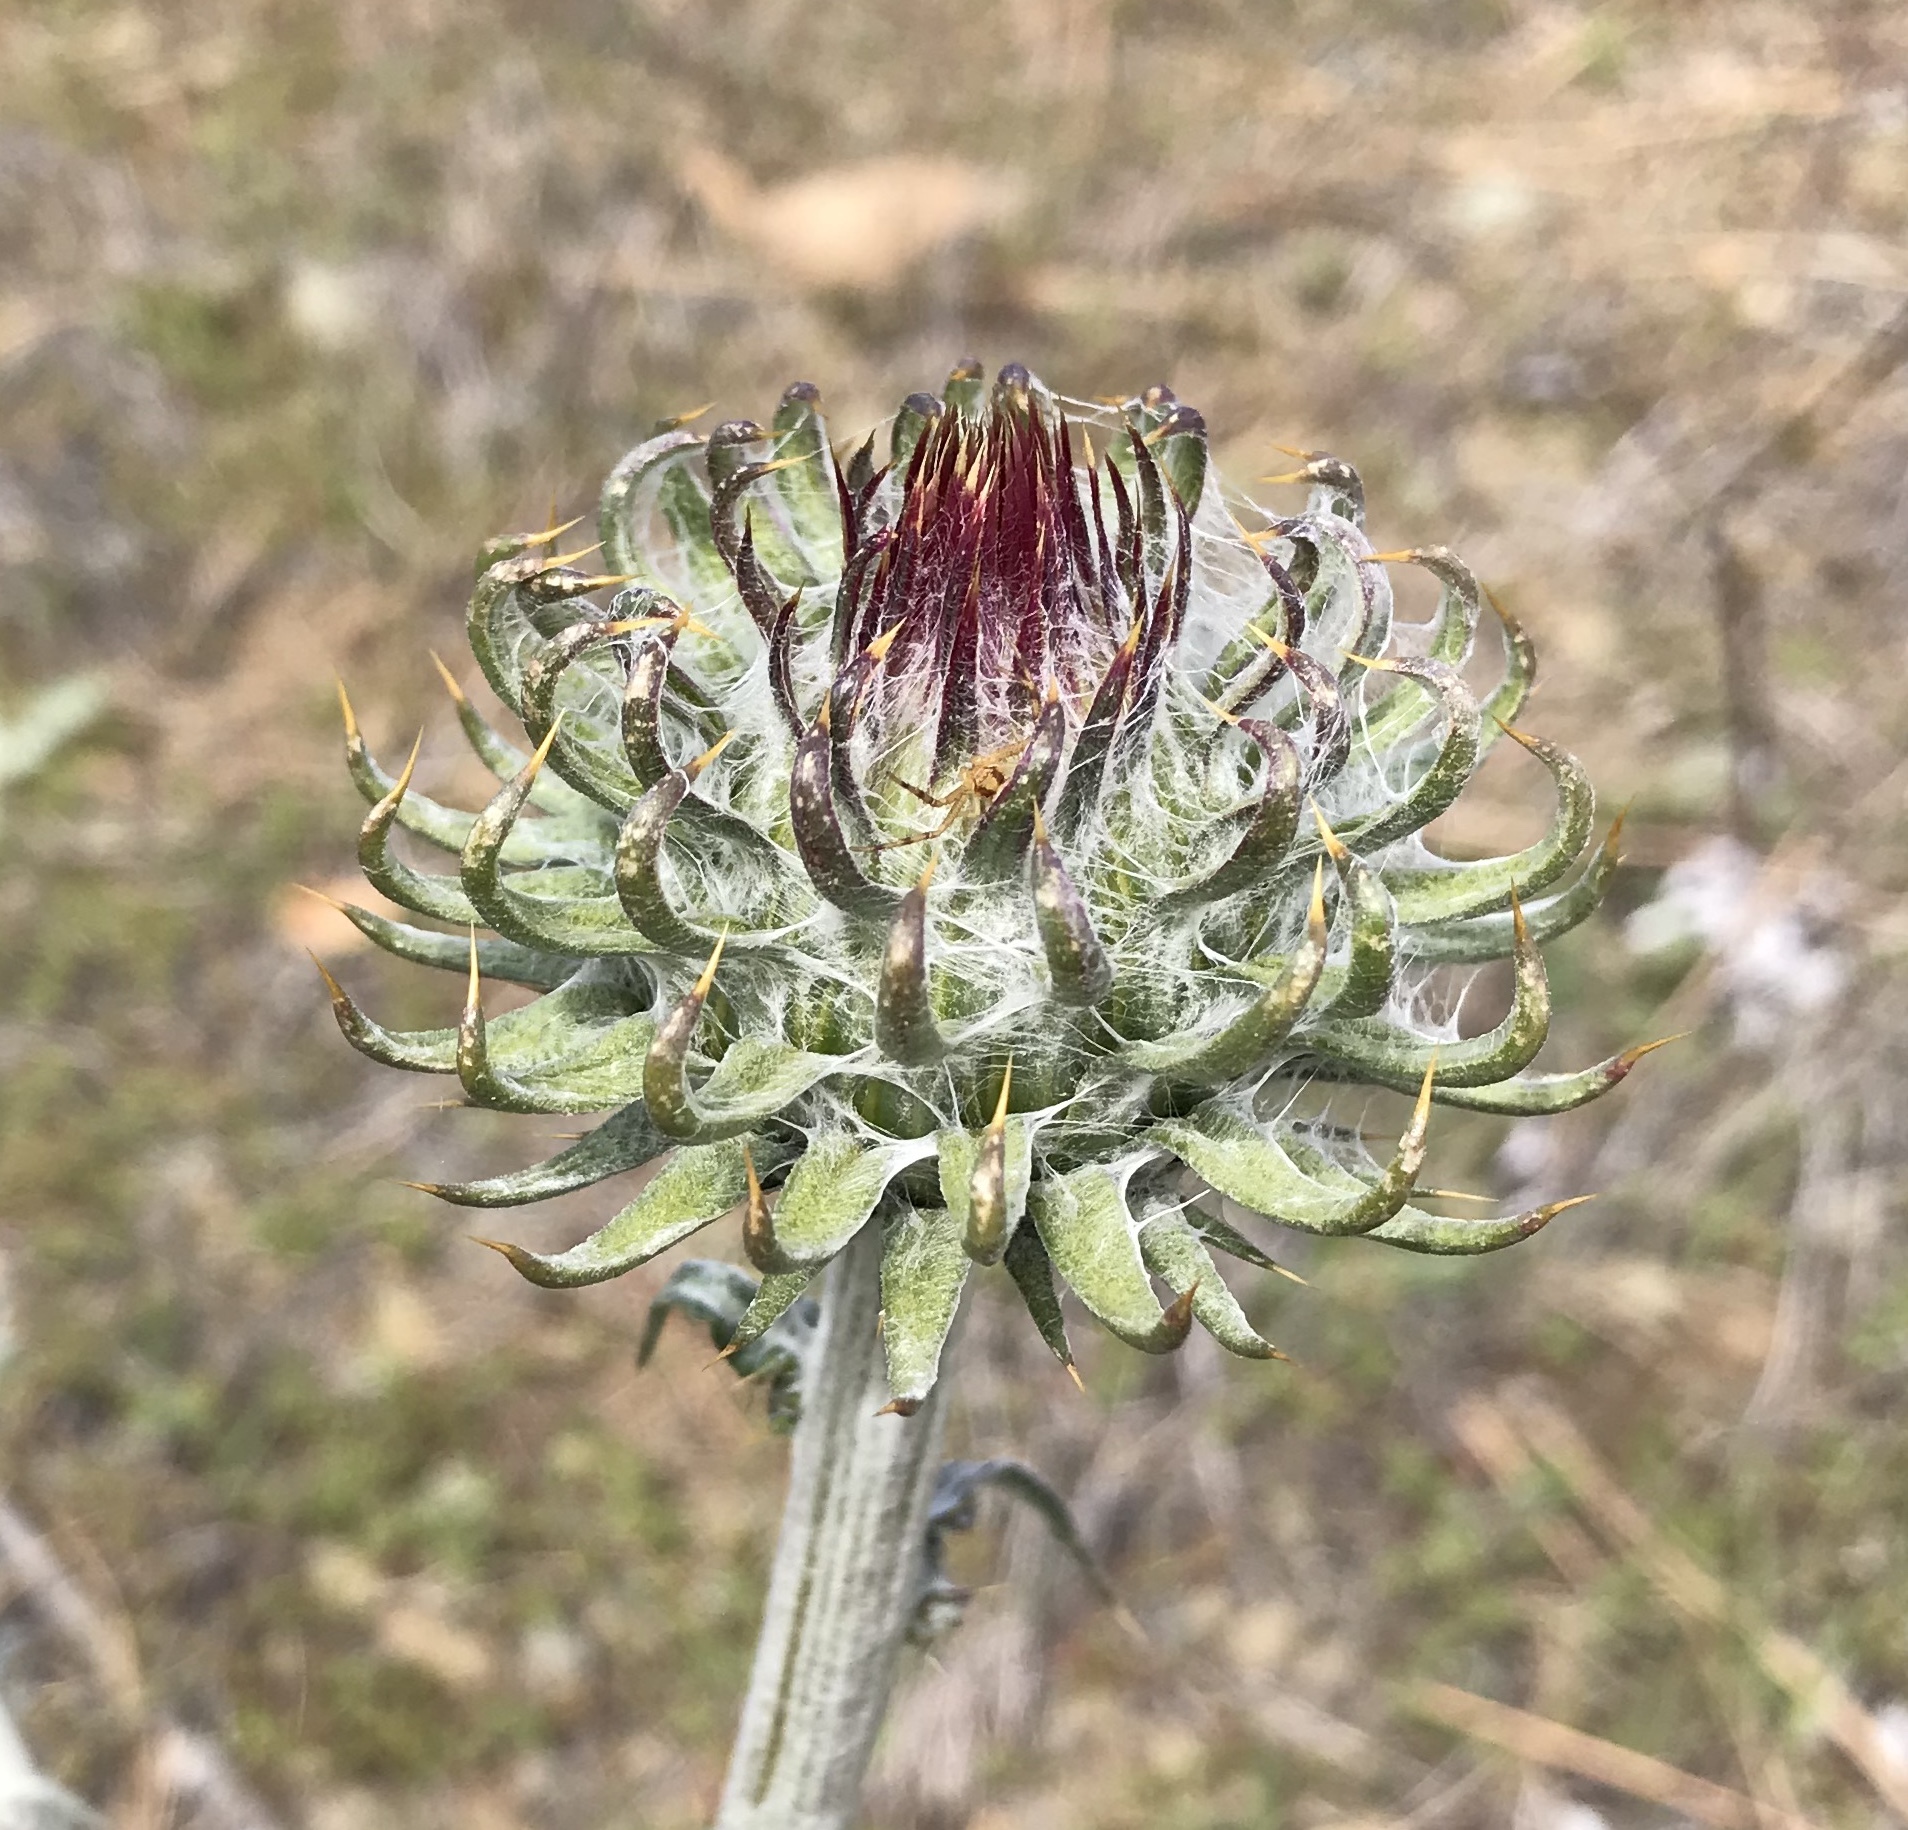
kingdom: Plantae
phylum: Tracheophyta
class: Magnoliopsida
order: Asterales
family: Asteraceae
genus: Cirsium
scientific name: Cirsium occidentale
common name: Western thistle
